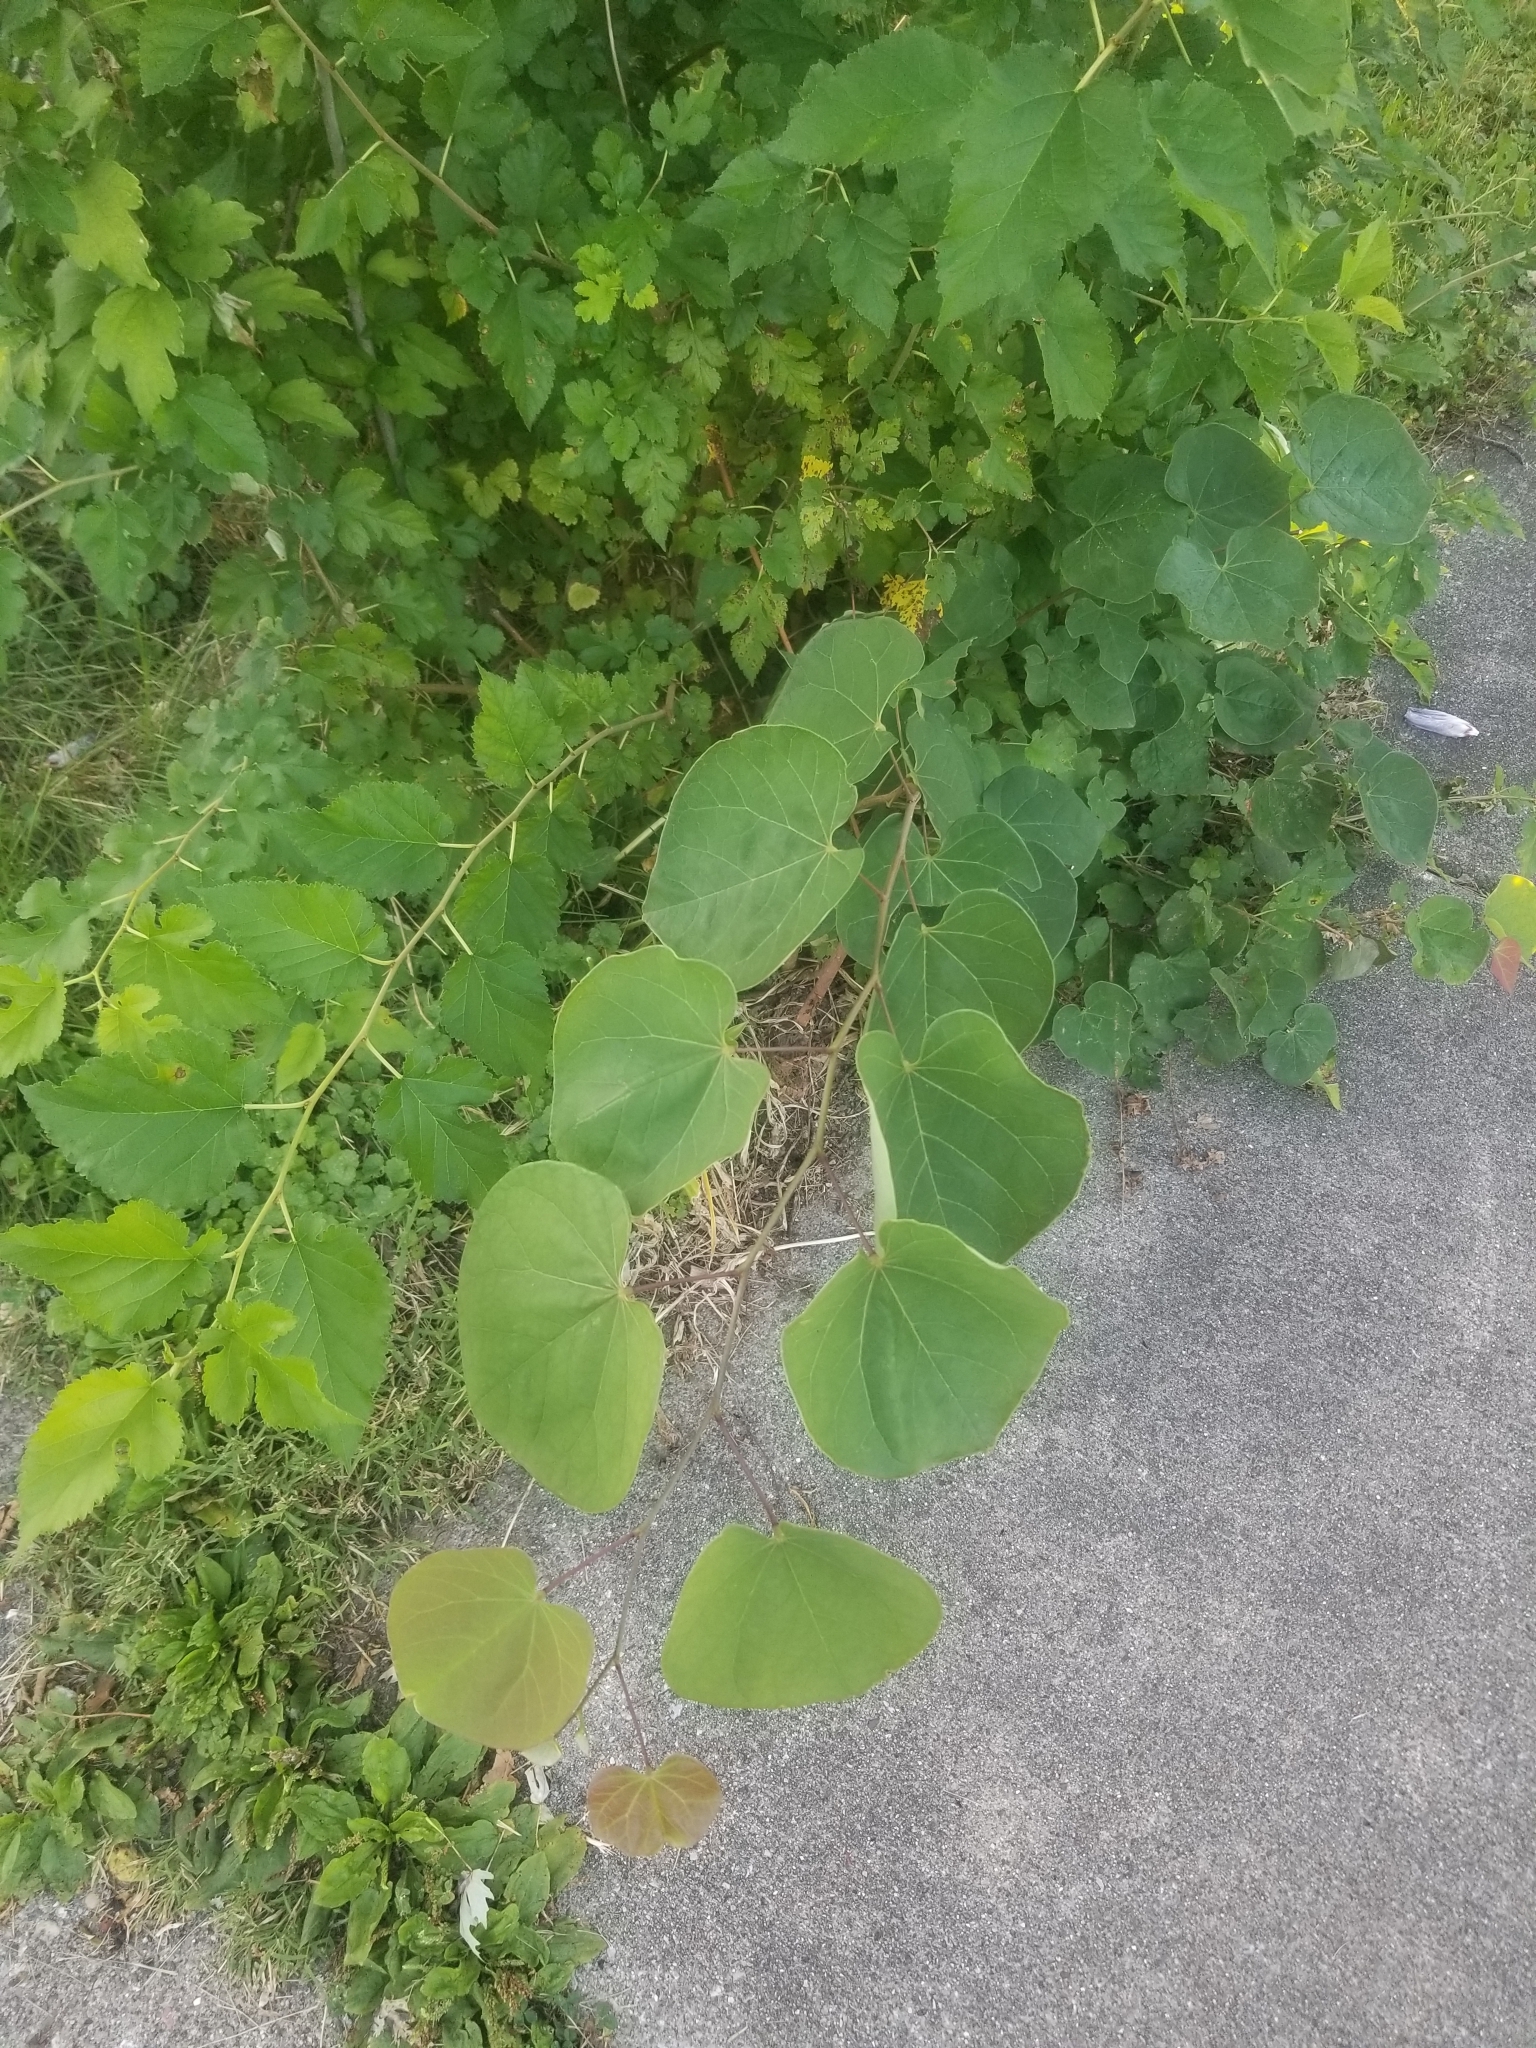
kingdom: Plantae
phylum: Tracheophyta
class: Magnoliopsida
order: Fabales
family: Fabaceae
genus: Cercis
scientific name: Cercis canadensis
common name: Eastern redbud
